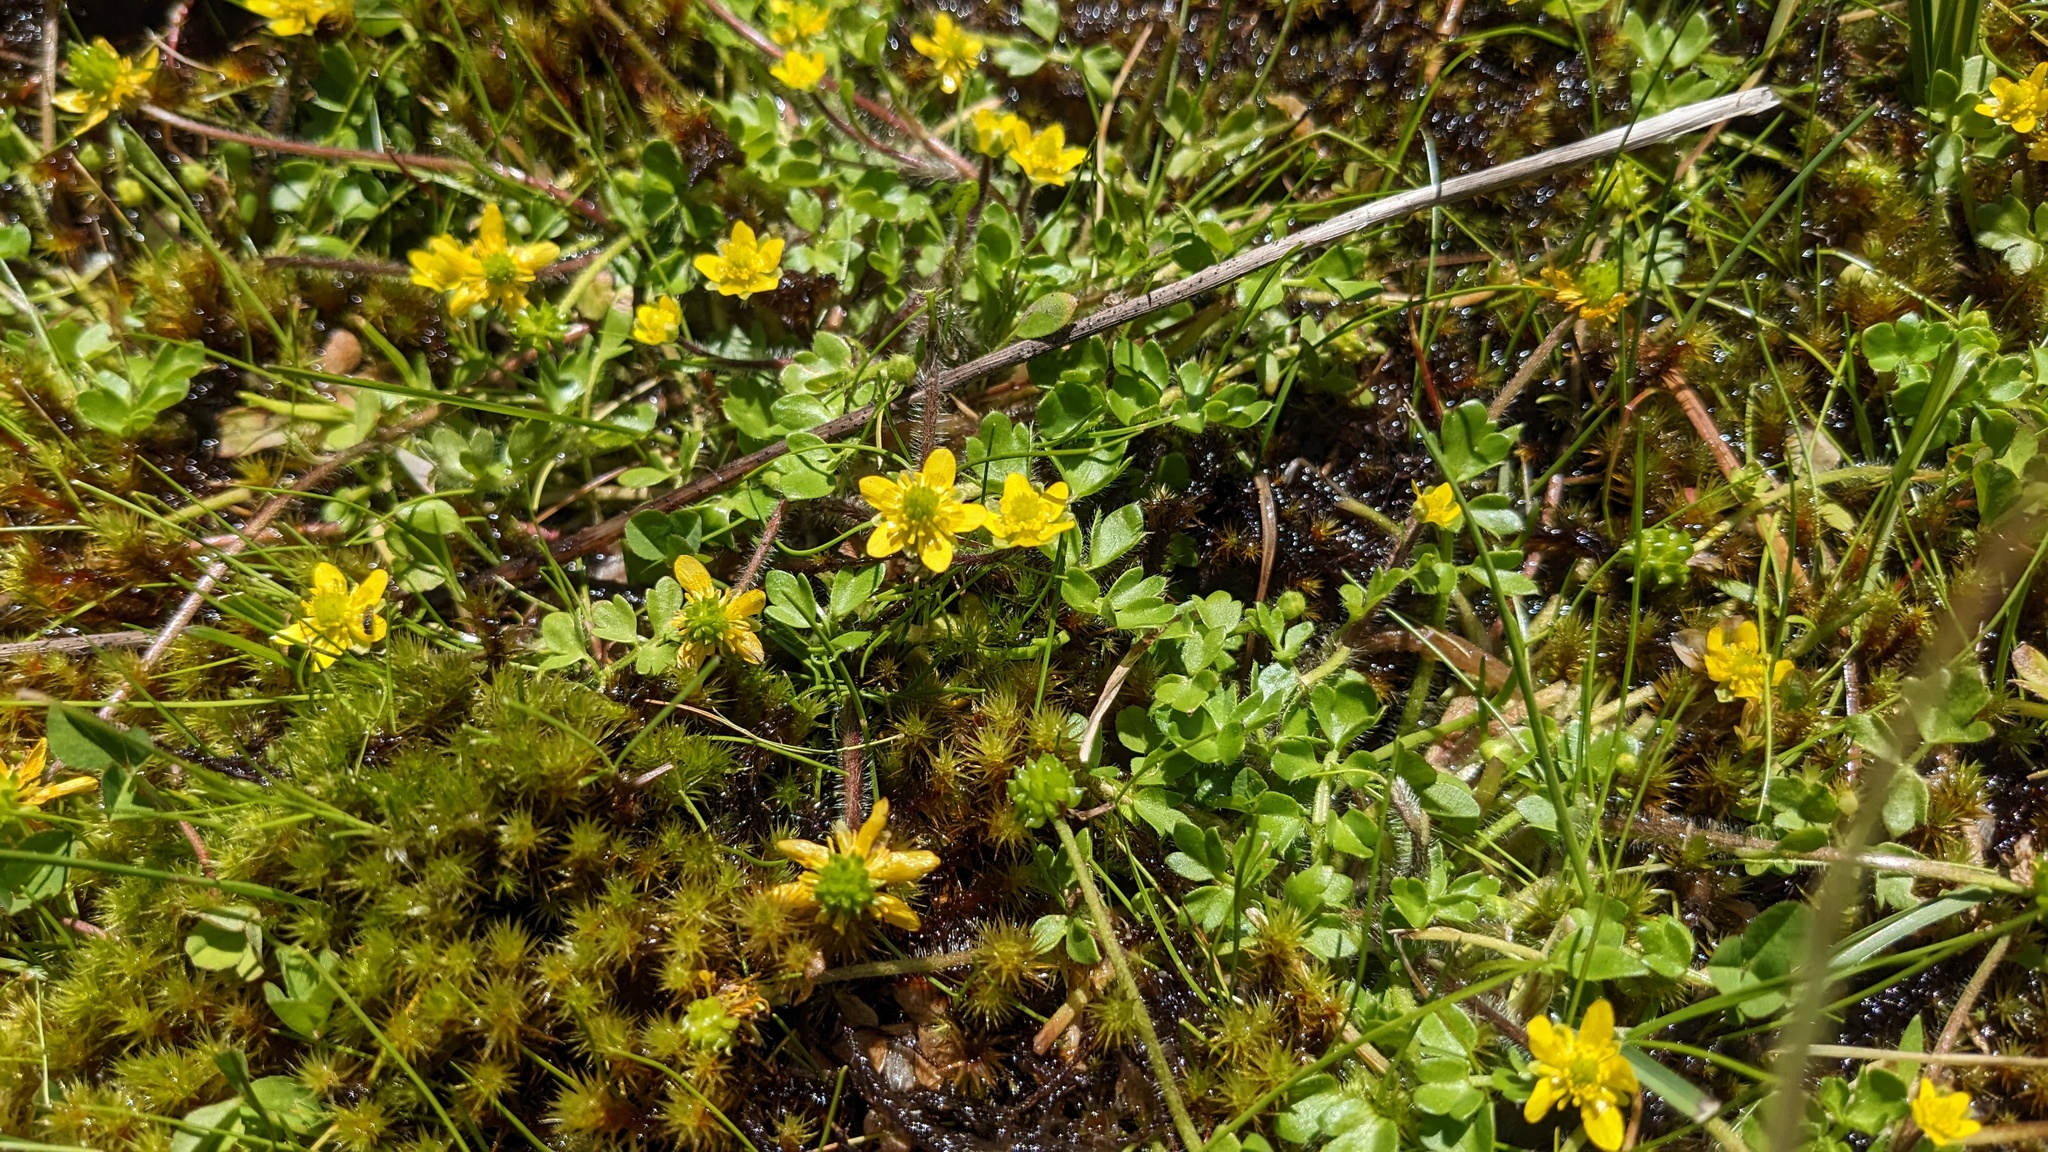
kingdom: Plantae
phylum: Tracheophyta
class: Magnoliopsida
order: Ranunculales
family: Ranunculaceae
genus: Ranunculus
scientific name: Ranunculus pimpinellifolius
